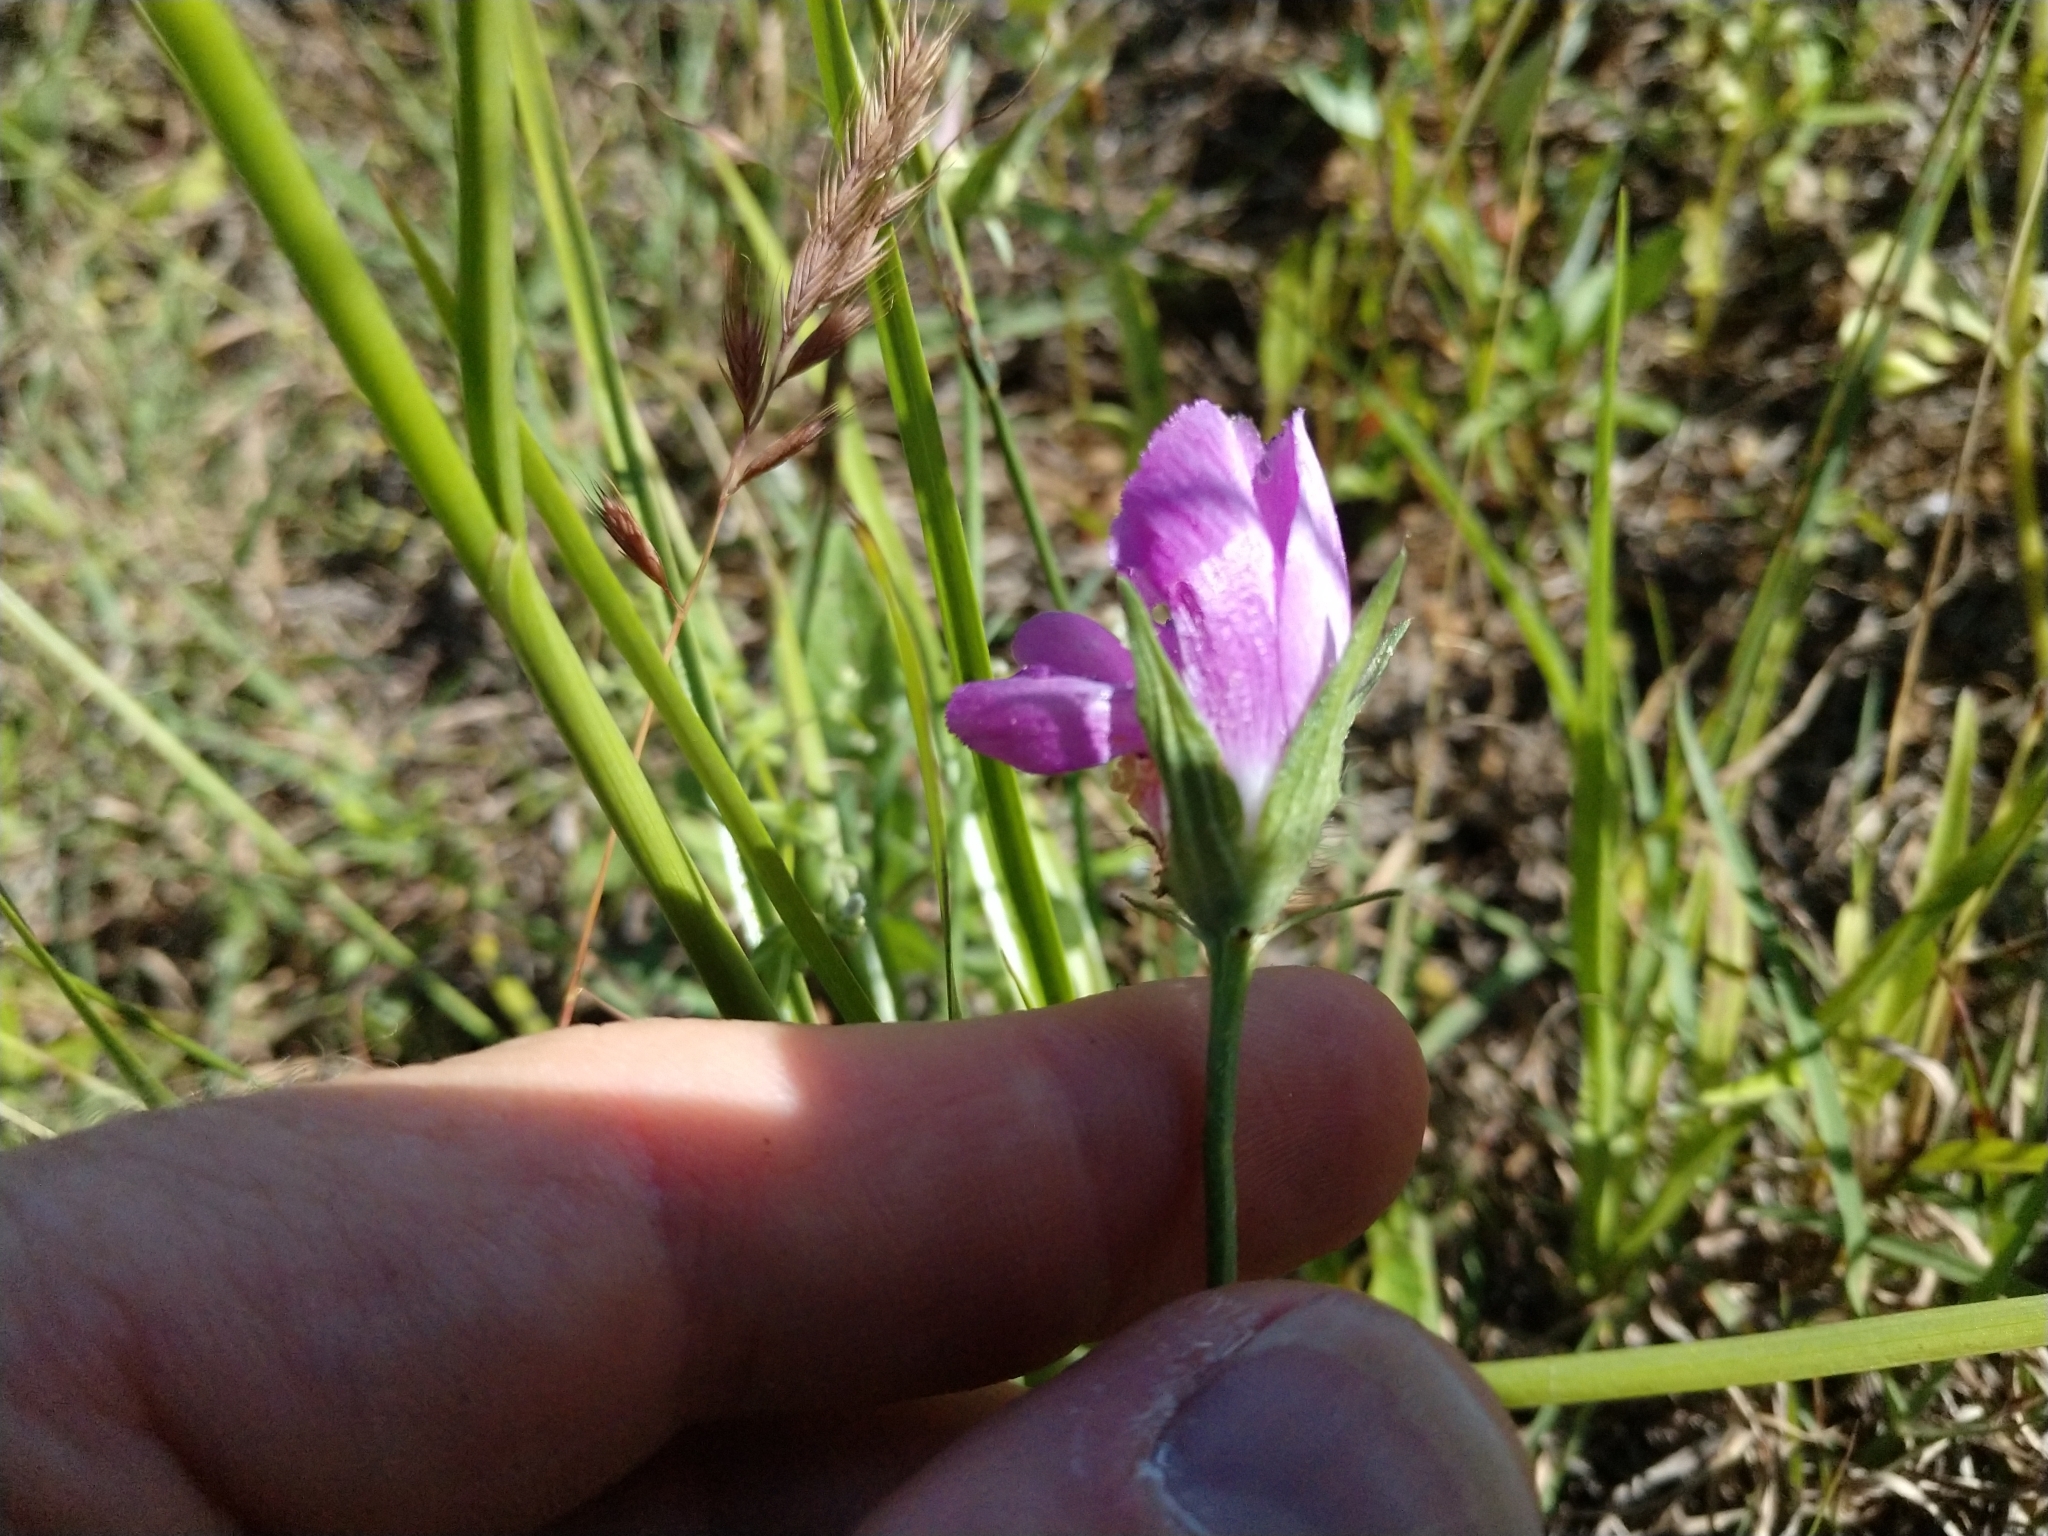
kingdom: Plantae
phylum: Tracheophyta
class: Magnoliopsida
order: Malvales
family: Malvaceae
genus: Callirhoe
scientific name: Callirhoe involucrata
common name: Purple poppy-mallow
